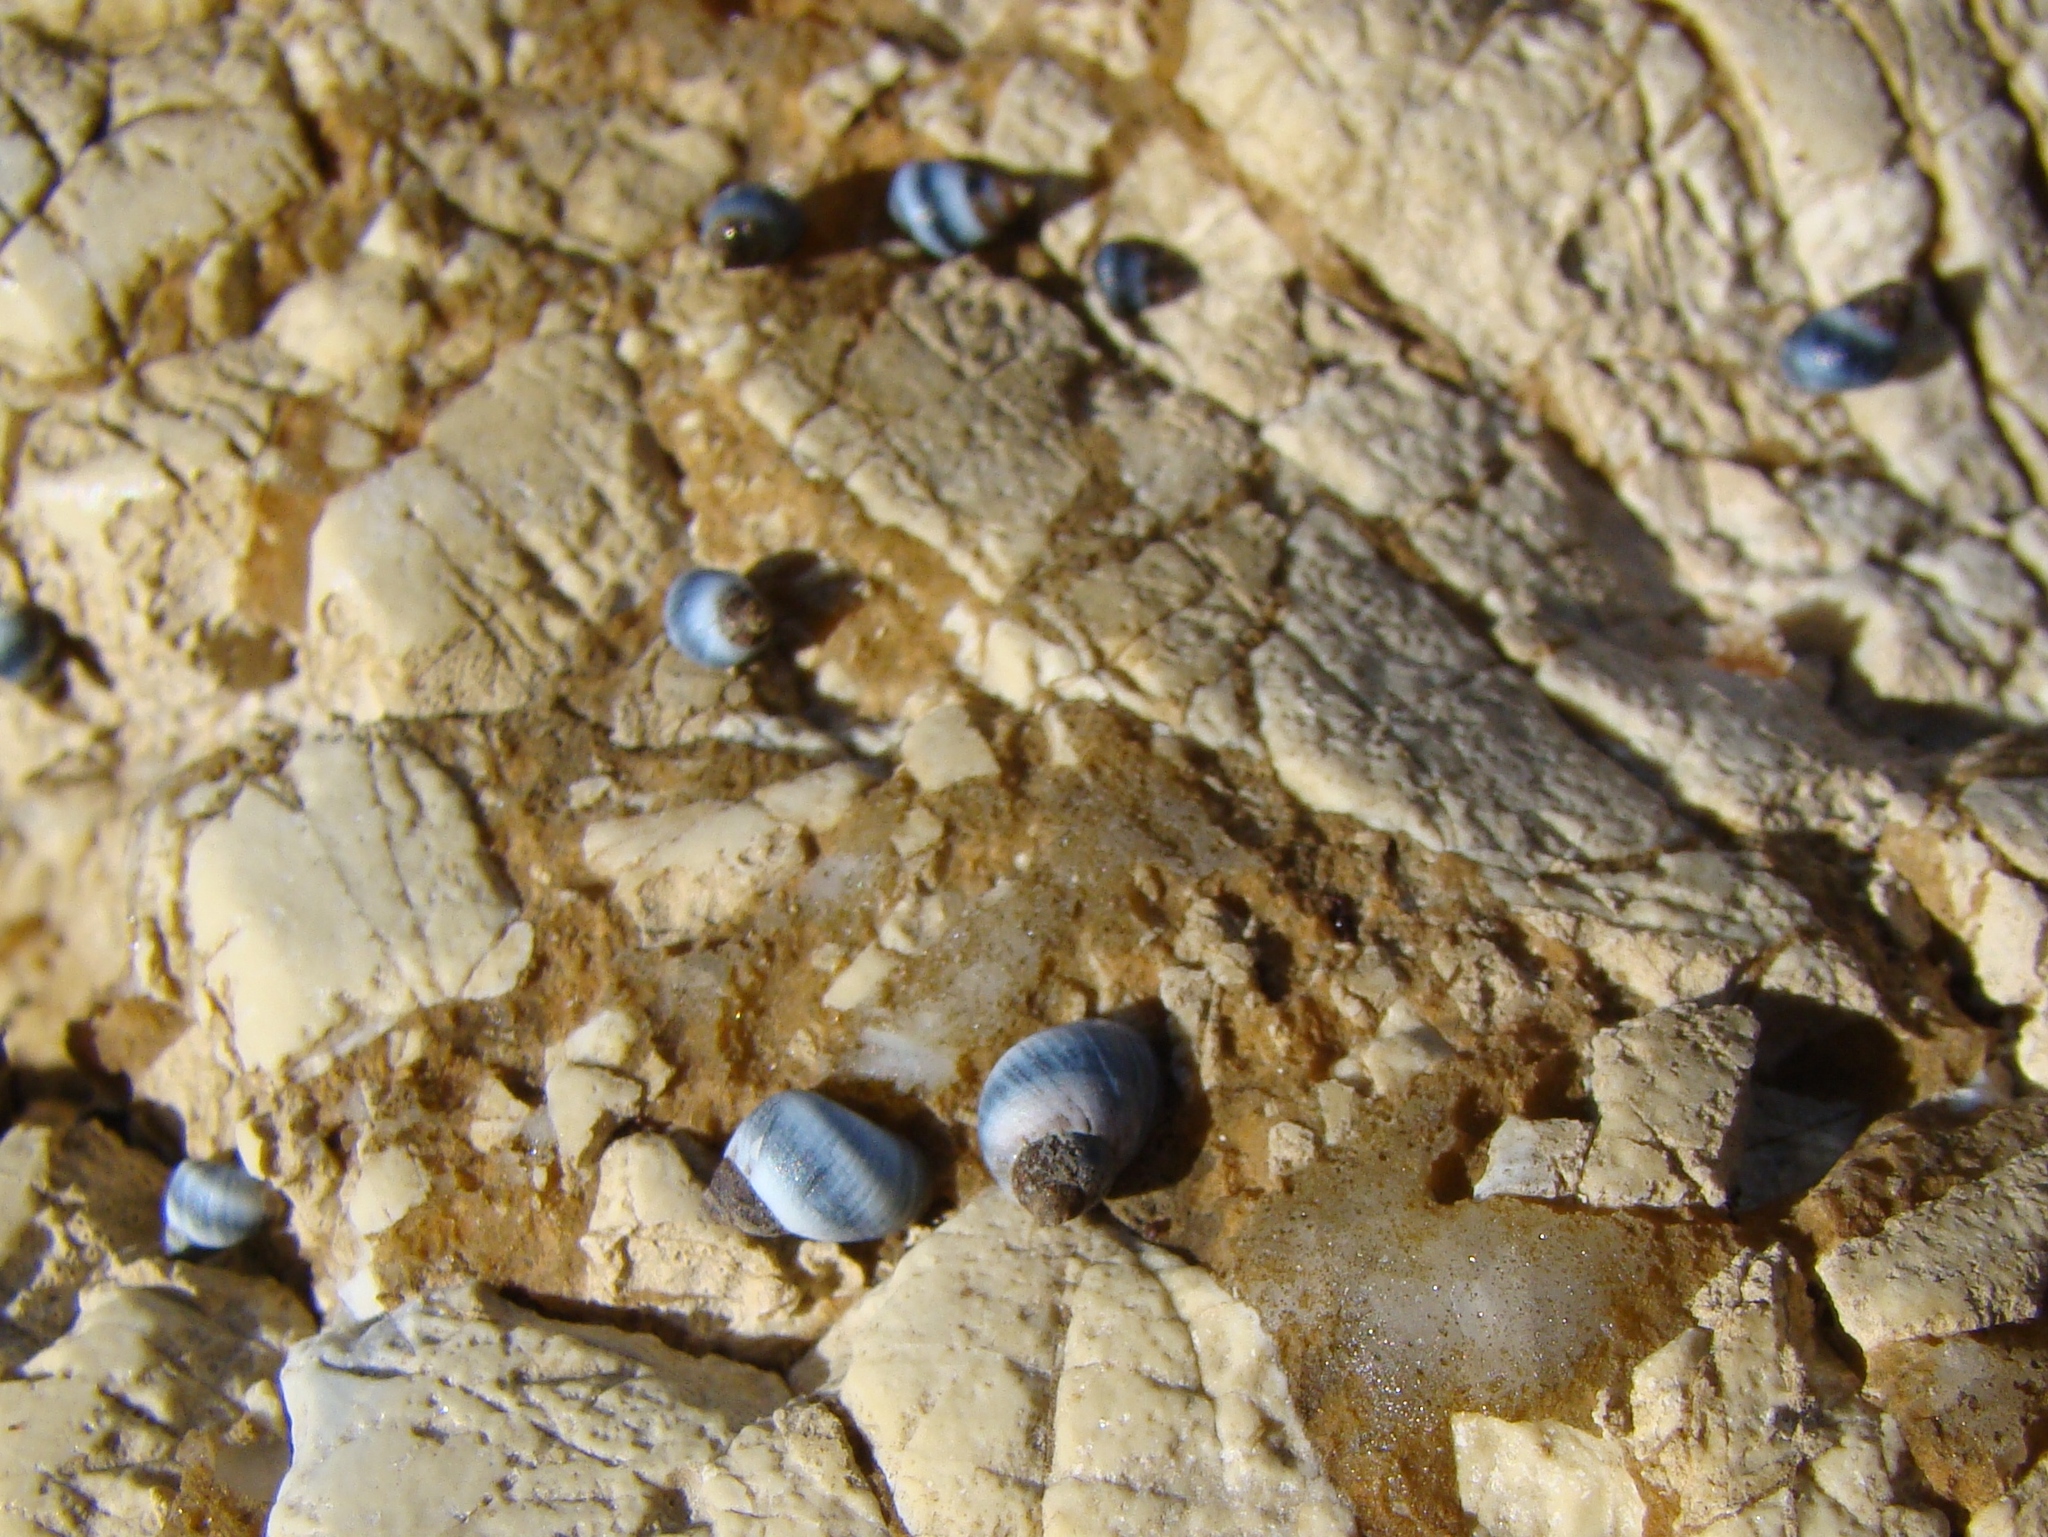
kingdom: Animalia
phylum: Mollusca
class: Gastropoda
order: Littorinimorpha
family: Littorinidae
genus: Austrolittorina
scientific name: Austrolittorina antipodum
